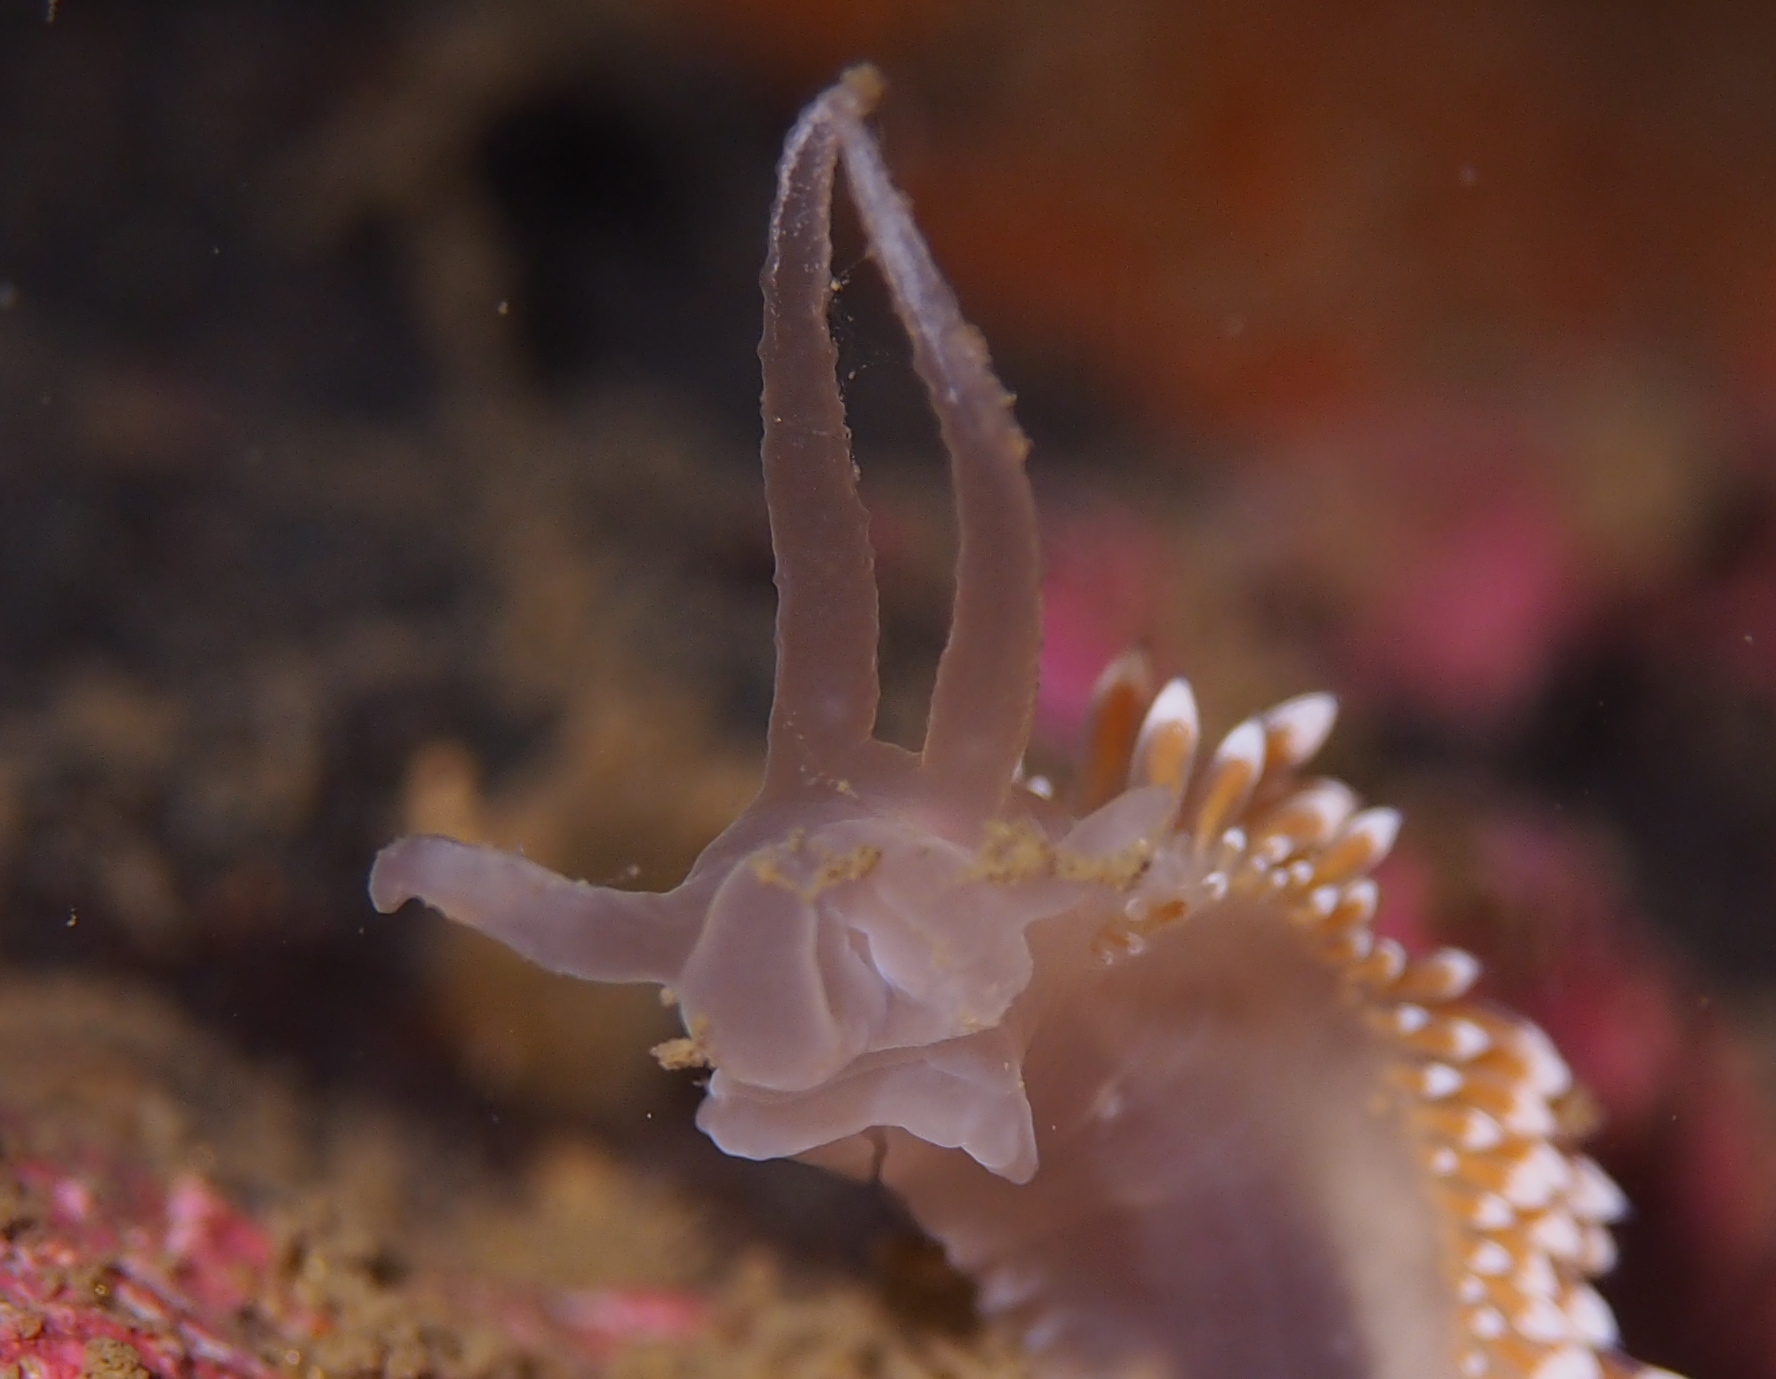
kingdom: Animalia
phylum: Mollusca
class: Gastropoda
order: Nudibranchia
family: Coryphellidae
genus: Coryphella
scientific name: Coryphella verrucosa
